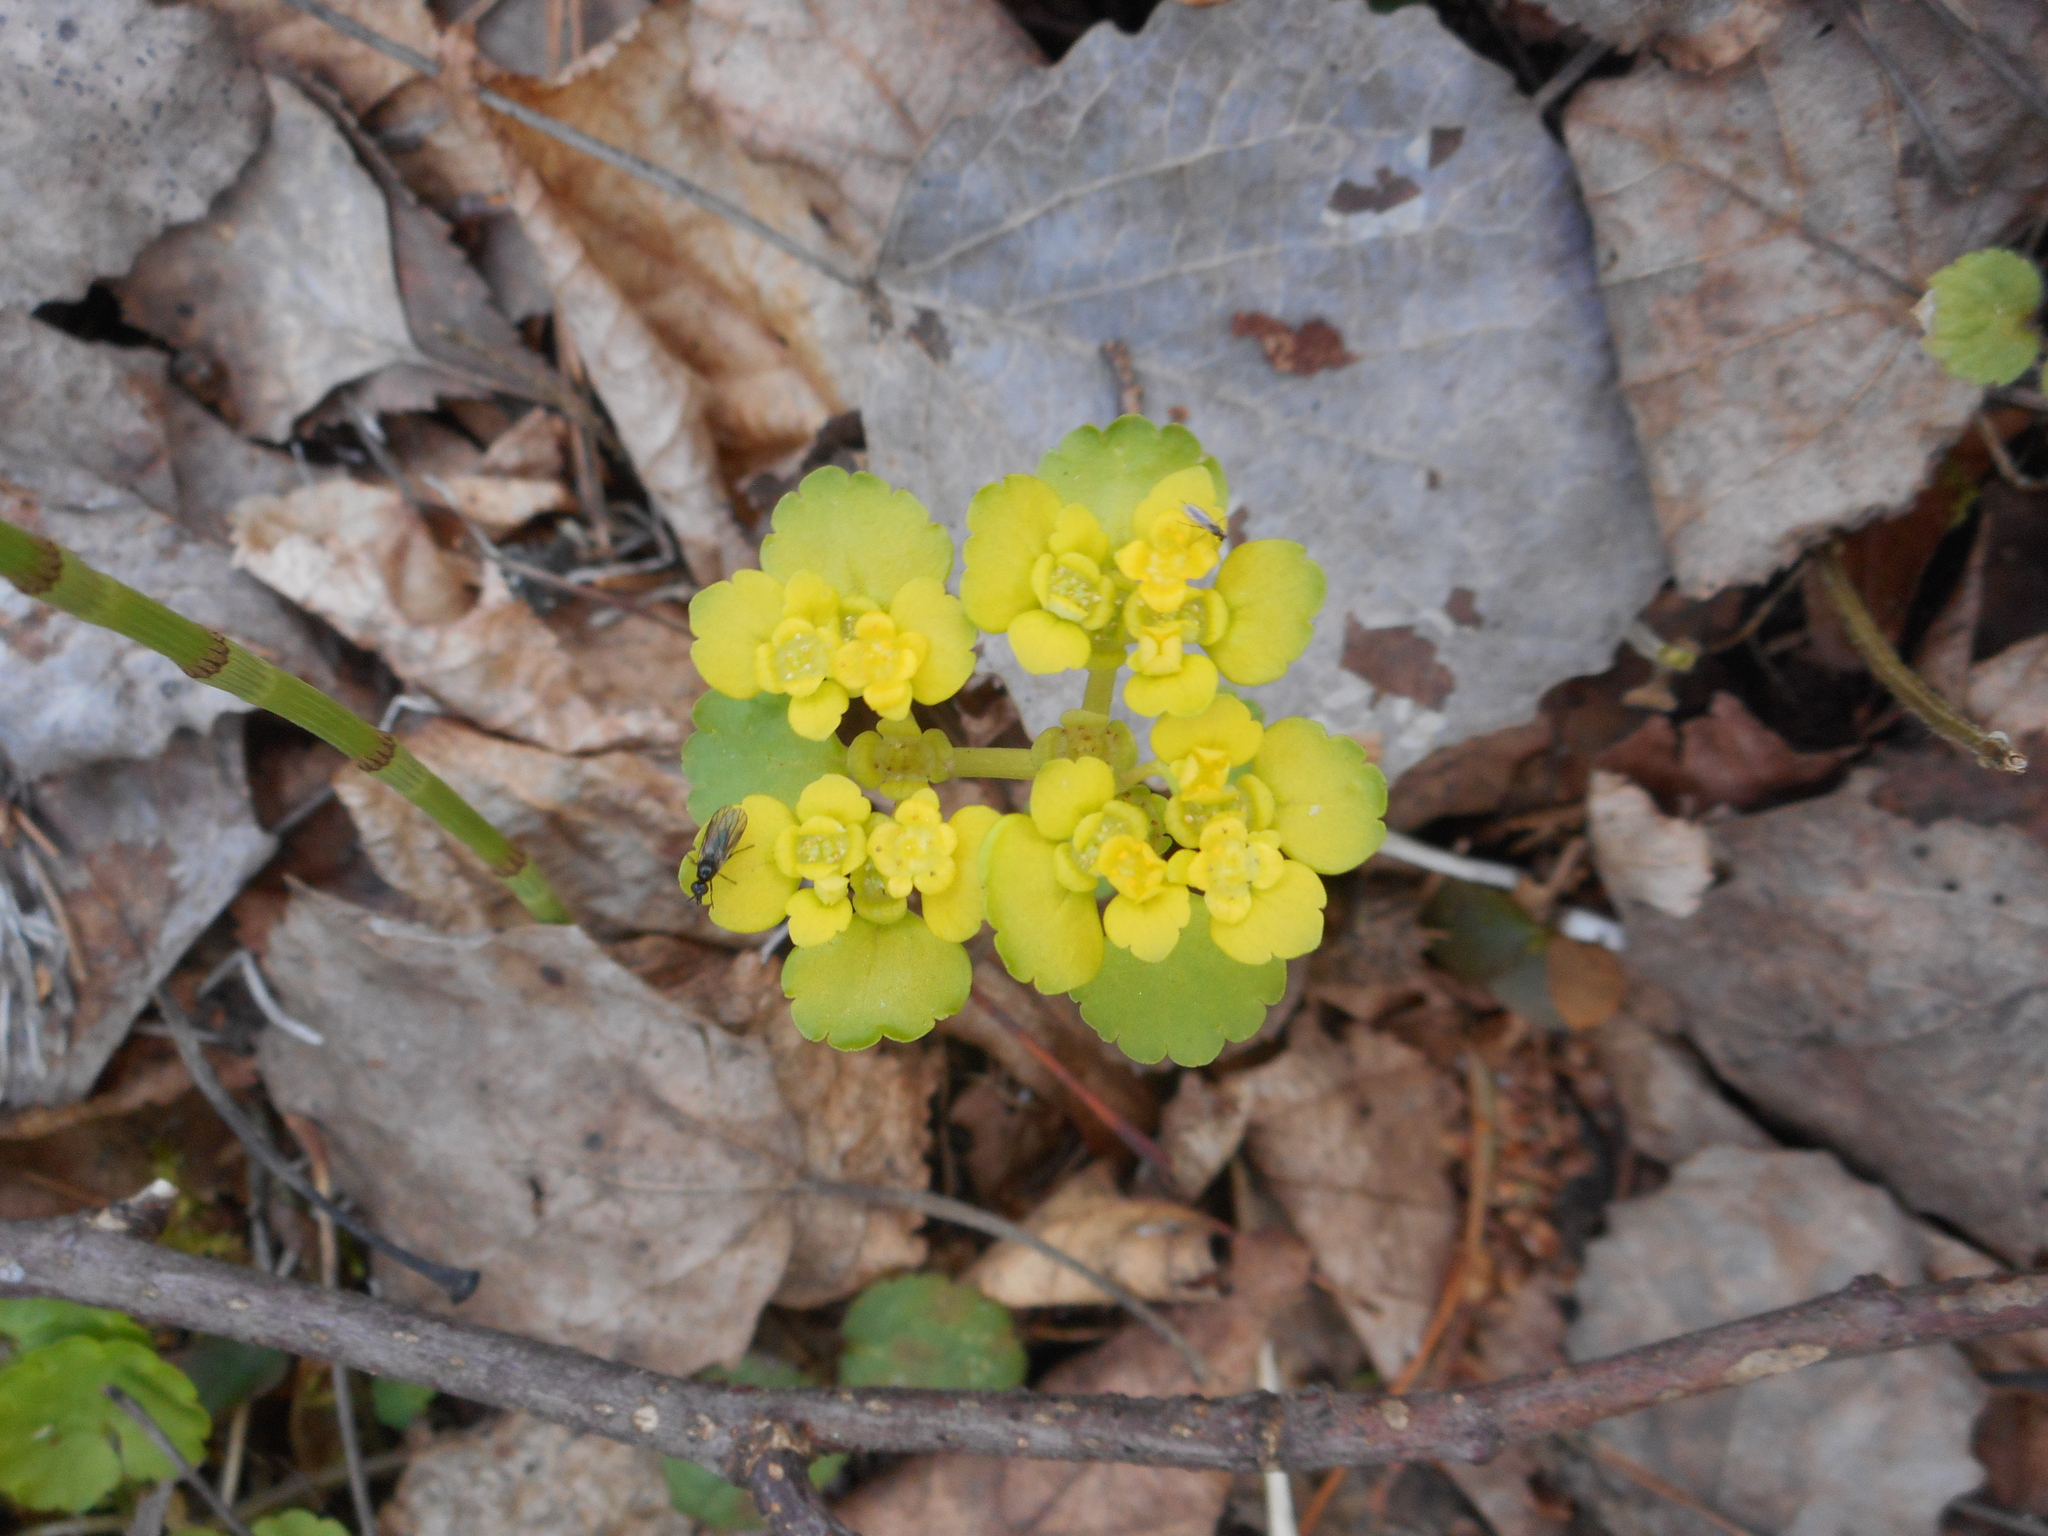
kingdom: Plantae
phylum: Tracheophyta
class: Magnoliopsida
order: Saxifragales
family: Saxifragaceae
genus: Chrysosplenium
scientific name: Chrysosplenium alternifolium
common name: Alternate-leaved golden-saxifrage
